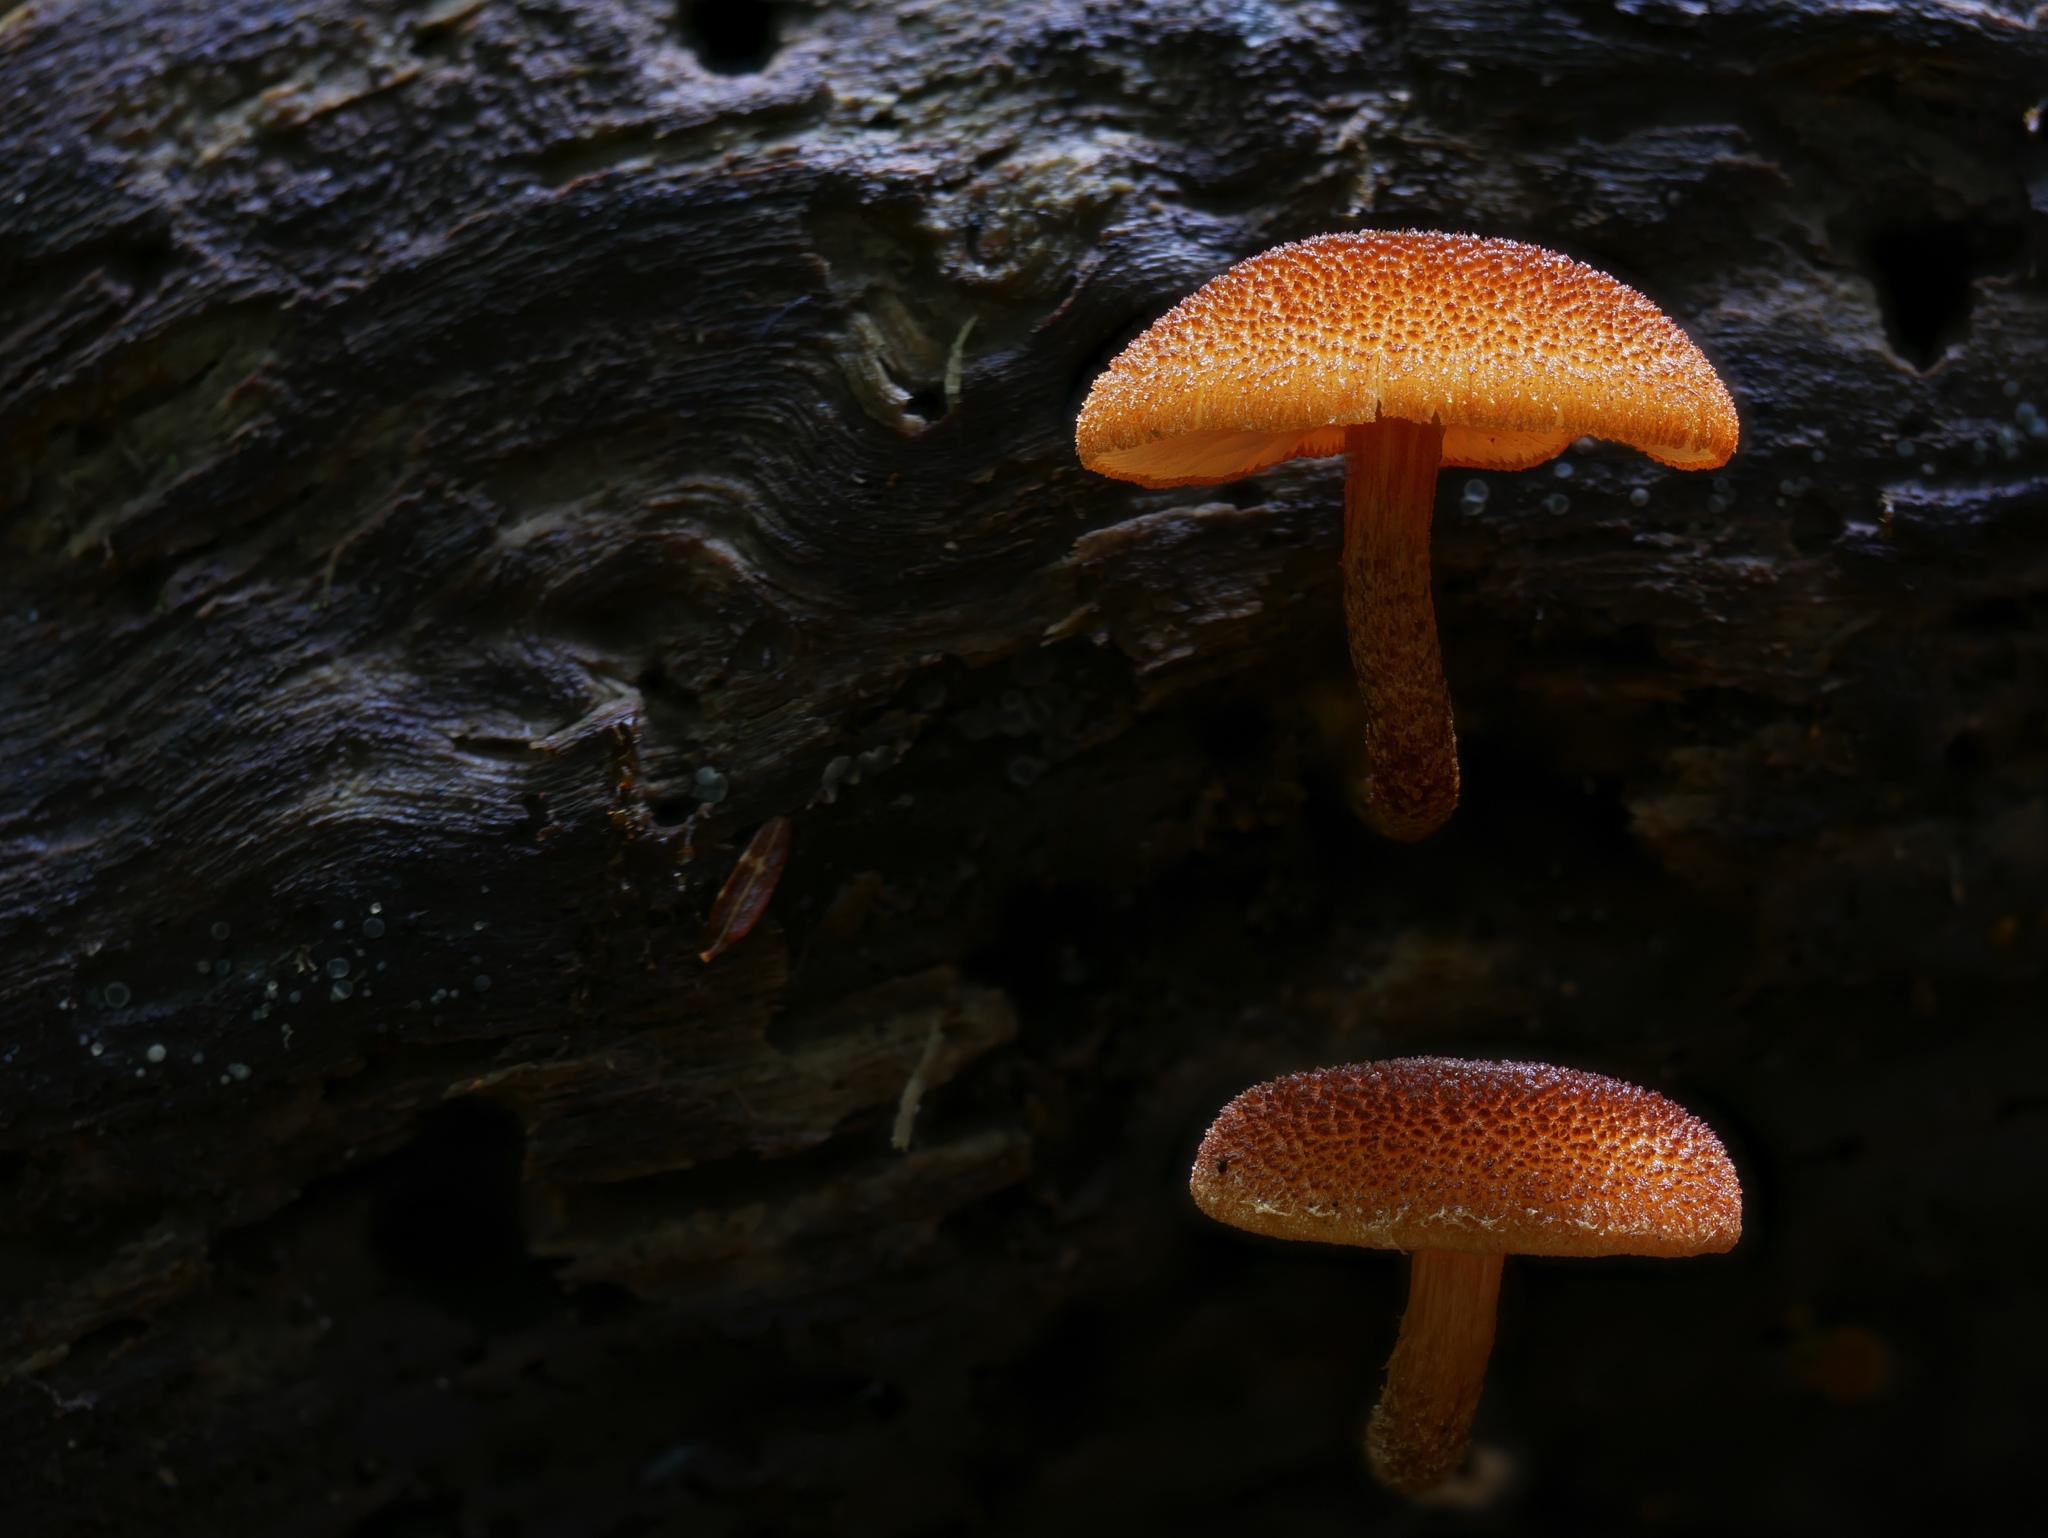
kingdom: Fungi
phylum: Basidiomycota
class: Agaricomycetes
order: Agaricales
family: Strophariaceae
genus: Pholiota
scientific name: Pholiota granulosa
